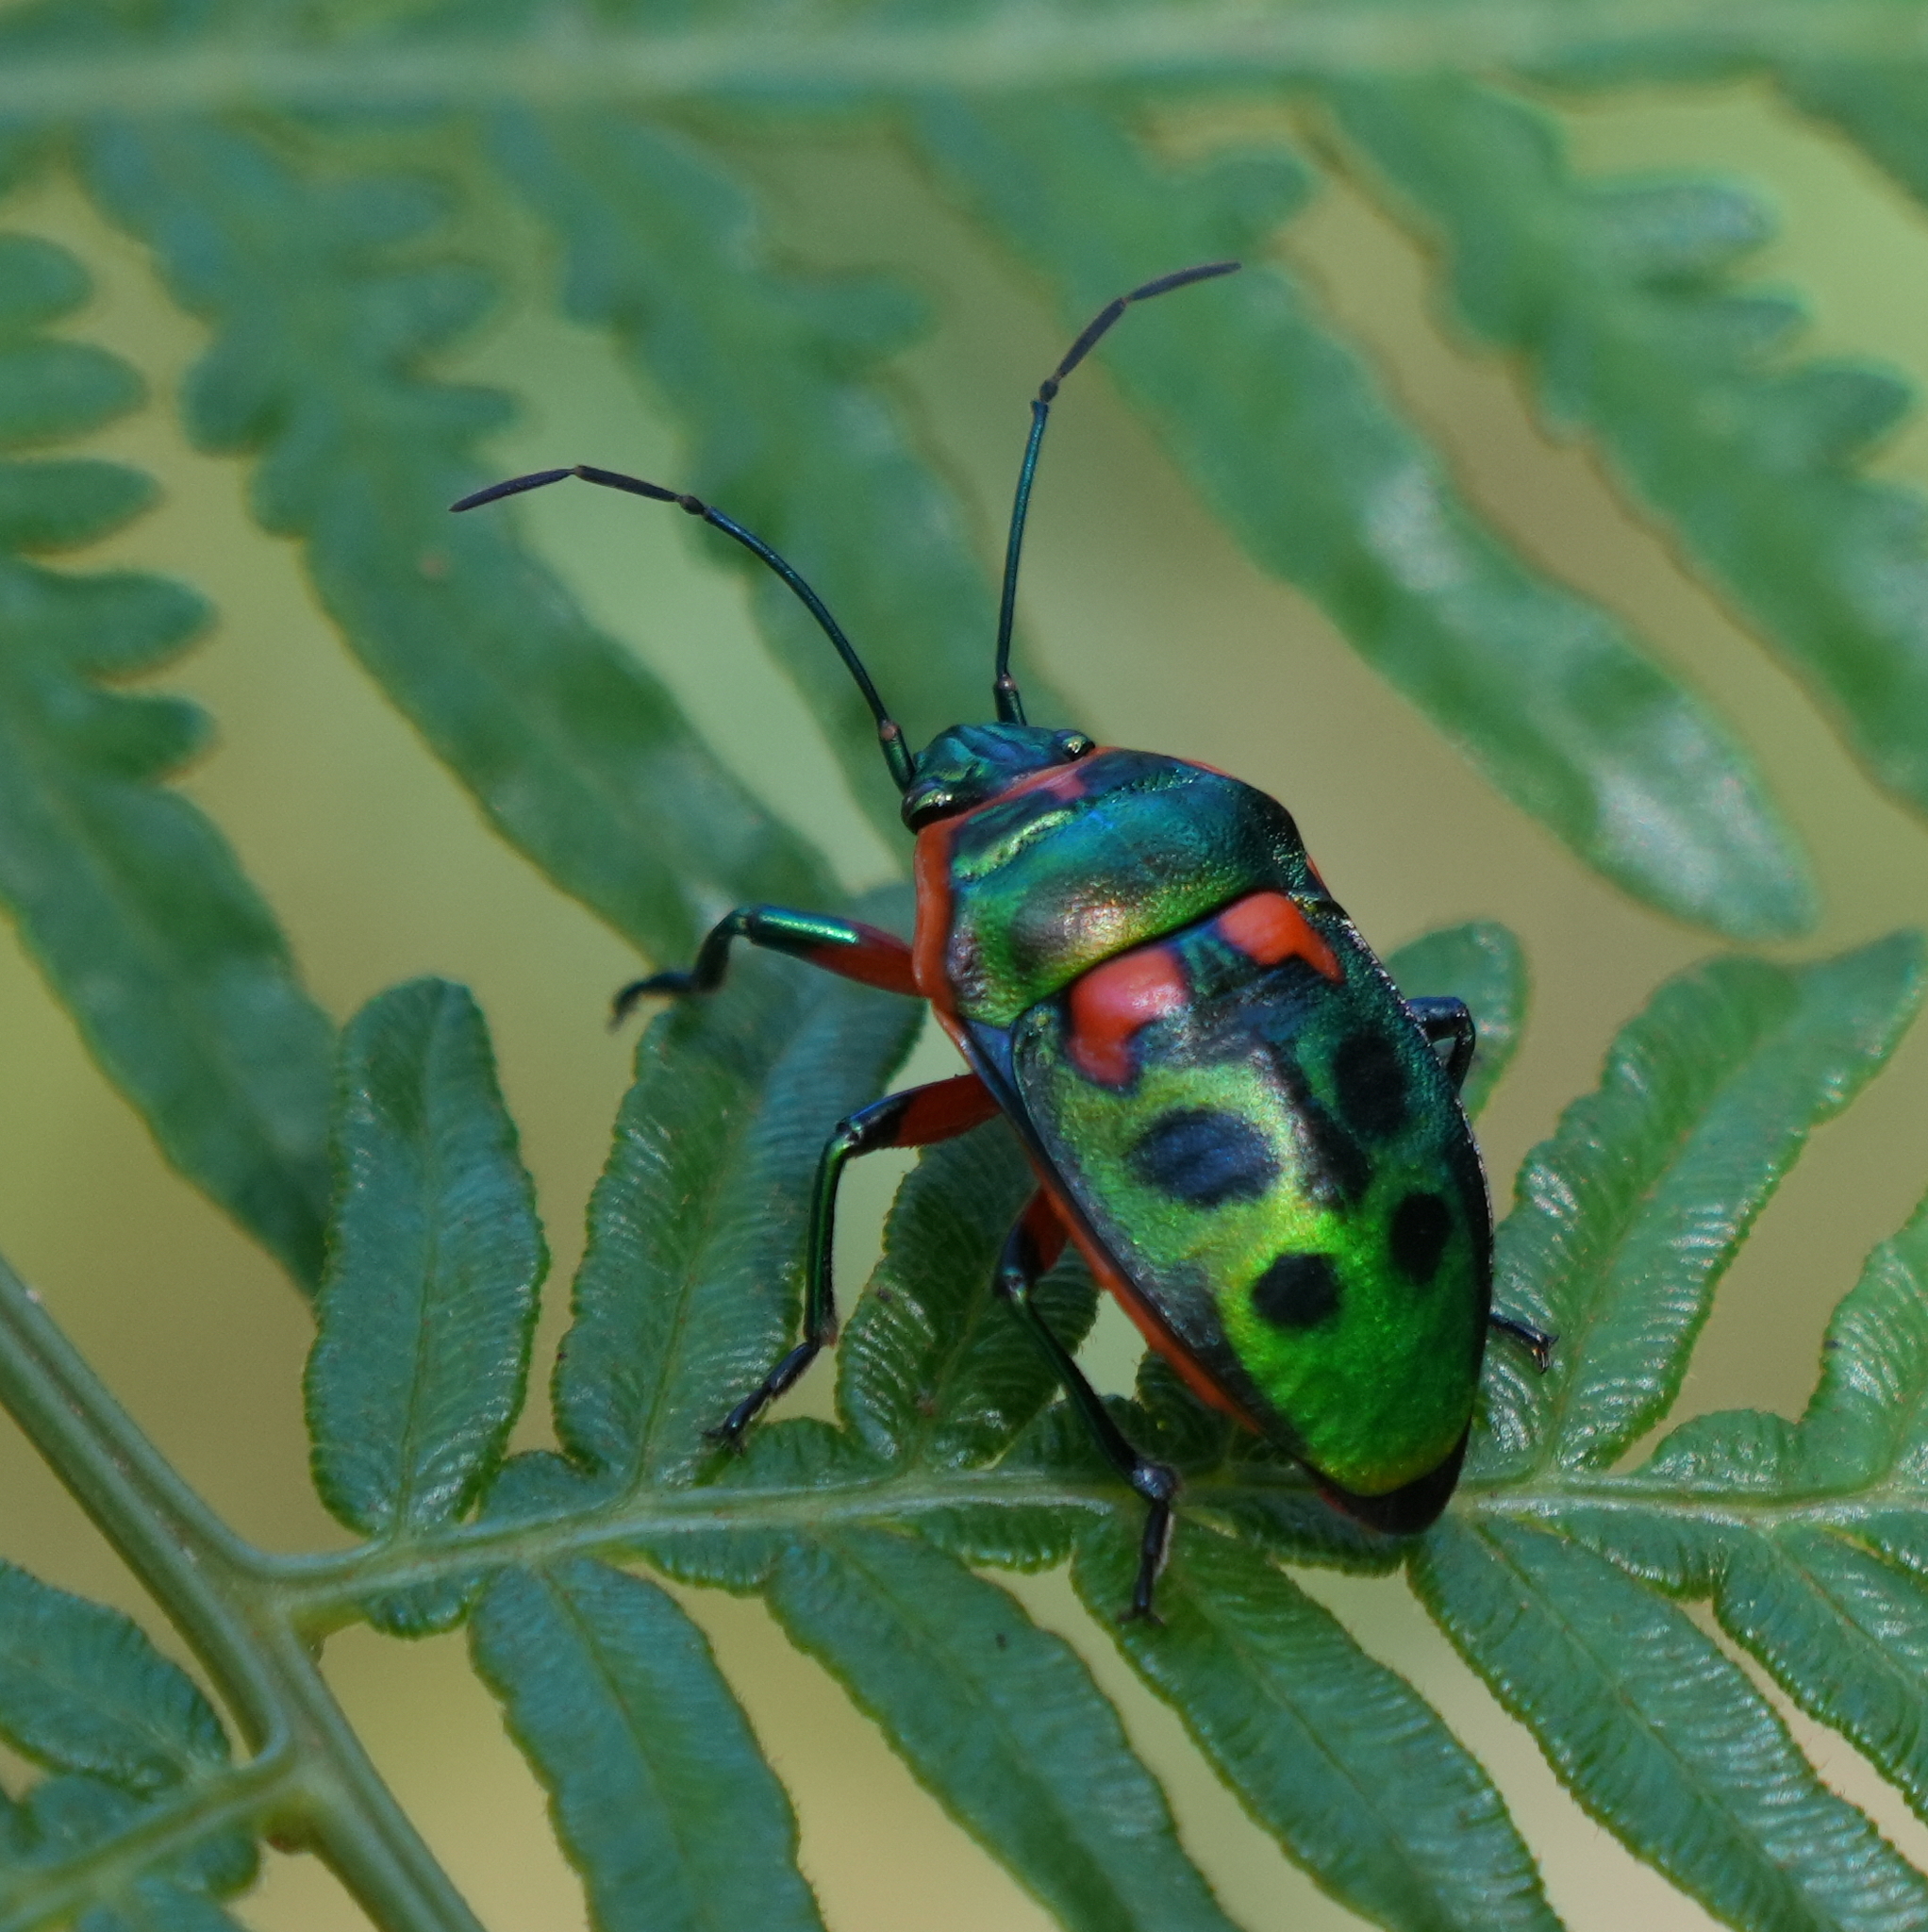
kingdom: Animalia
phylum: Arthropoda
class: Insecta
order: Hemiptera
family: Scutelleridae
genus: Scutiphora
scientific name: Scutiphora pedicellata
